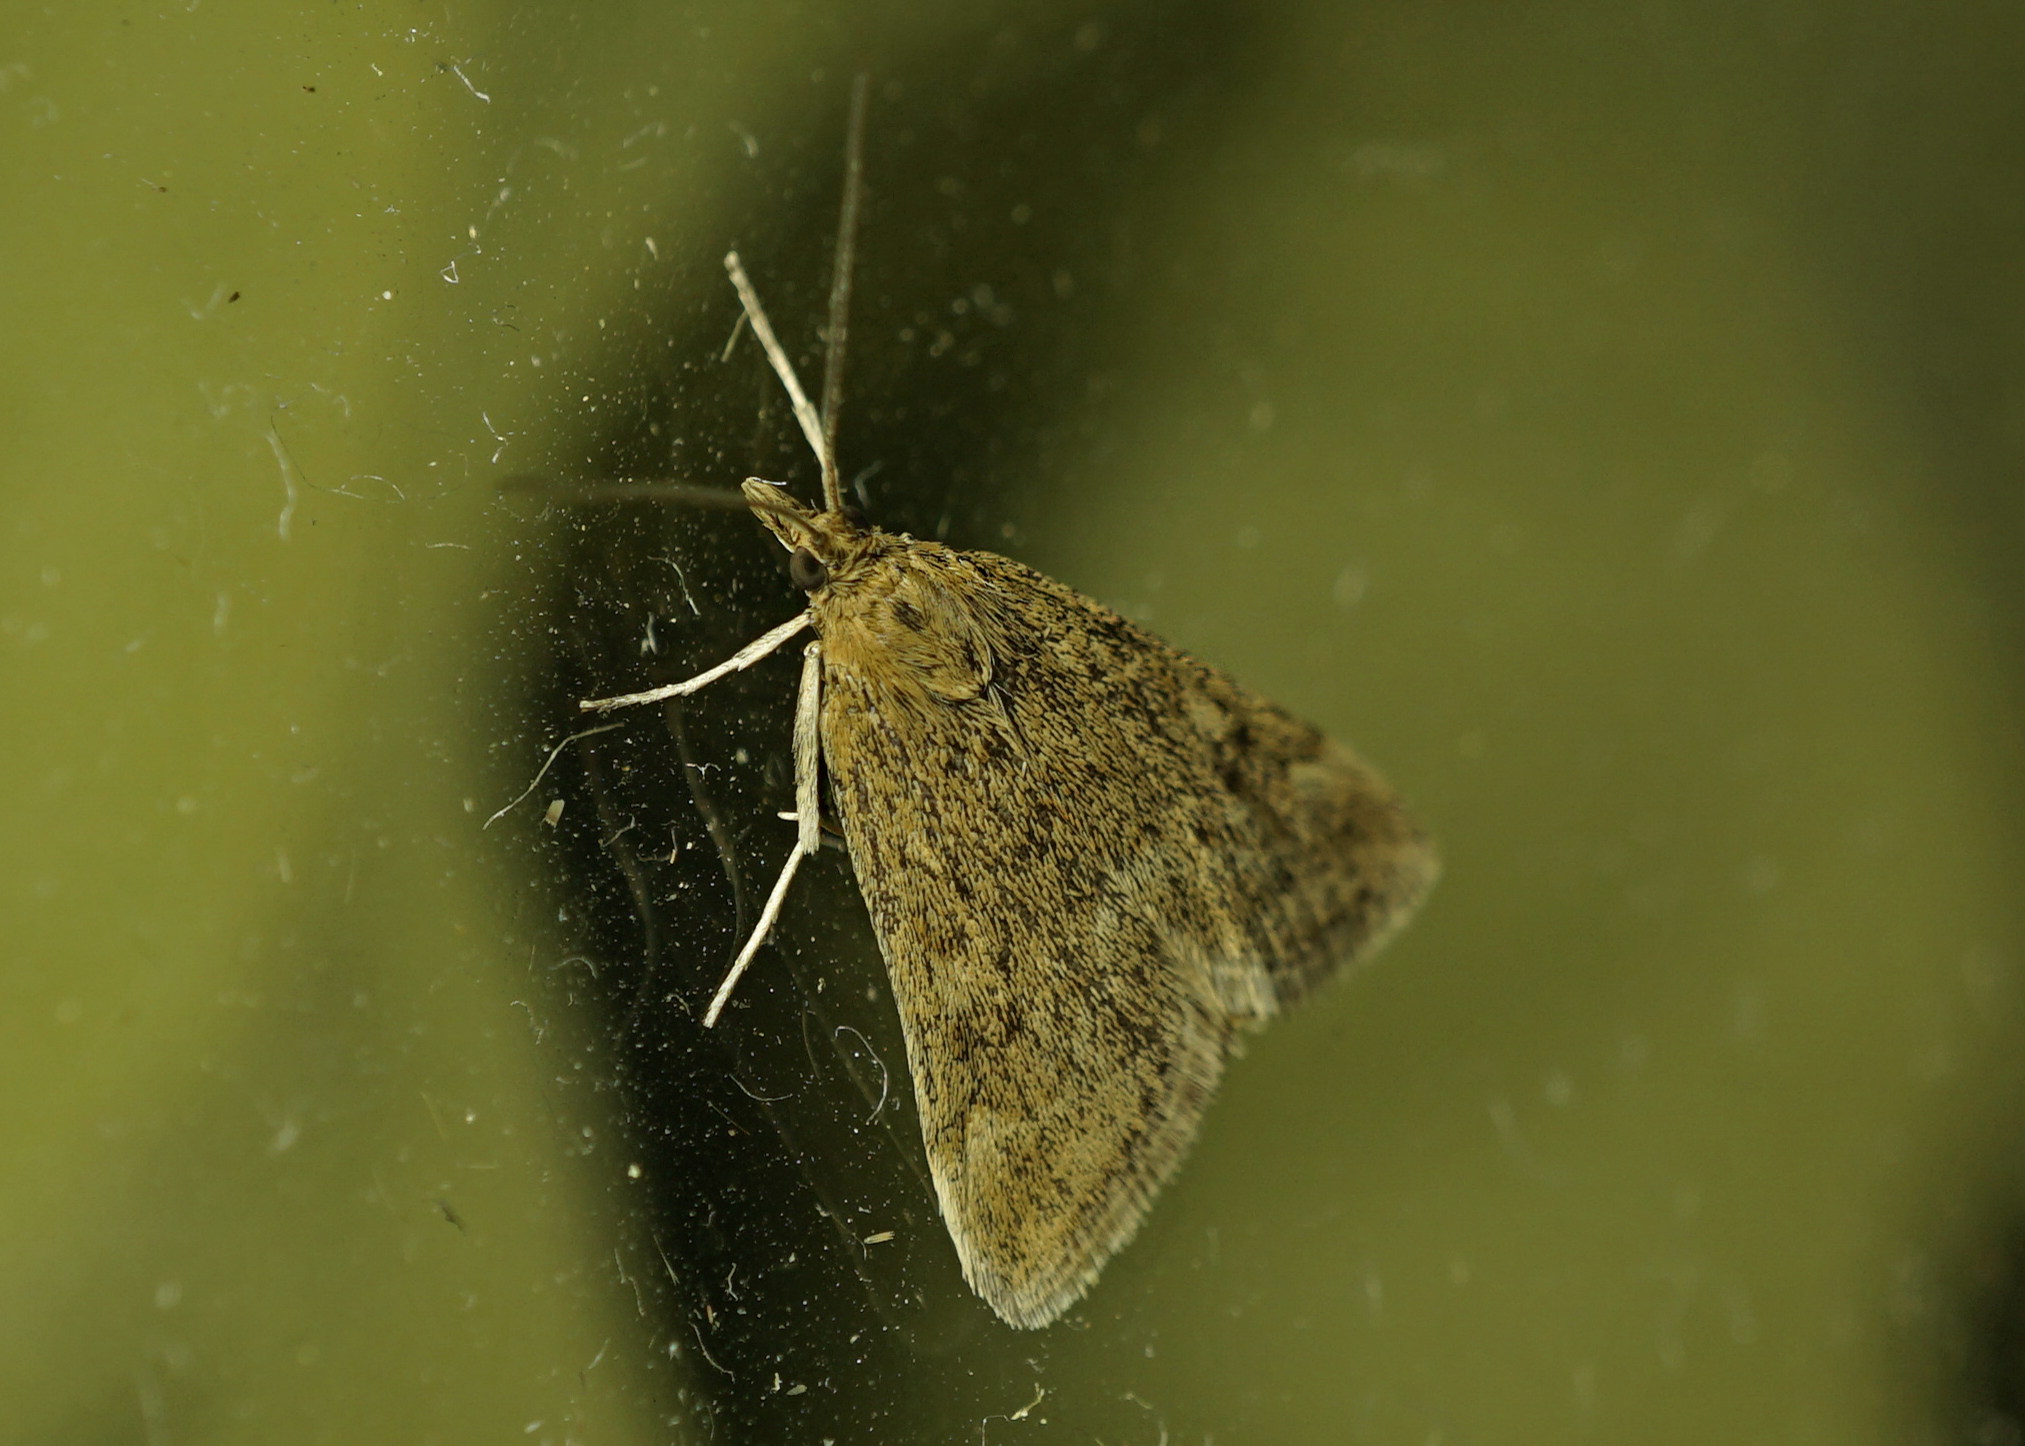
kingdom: Animalia
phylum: Arthropoda
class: Insecta
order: Lepidoptera
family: Crambidae
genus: Pyrausta
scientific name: Pyrausta despicata
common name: Straw-barred pearl
